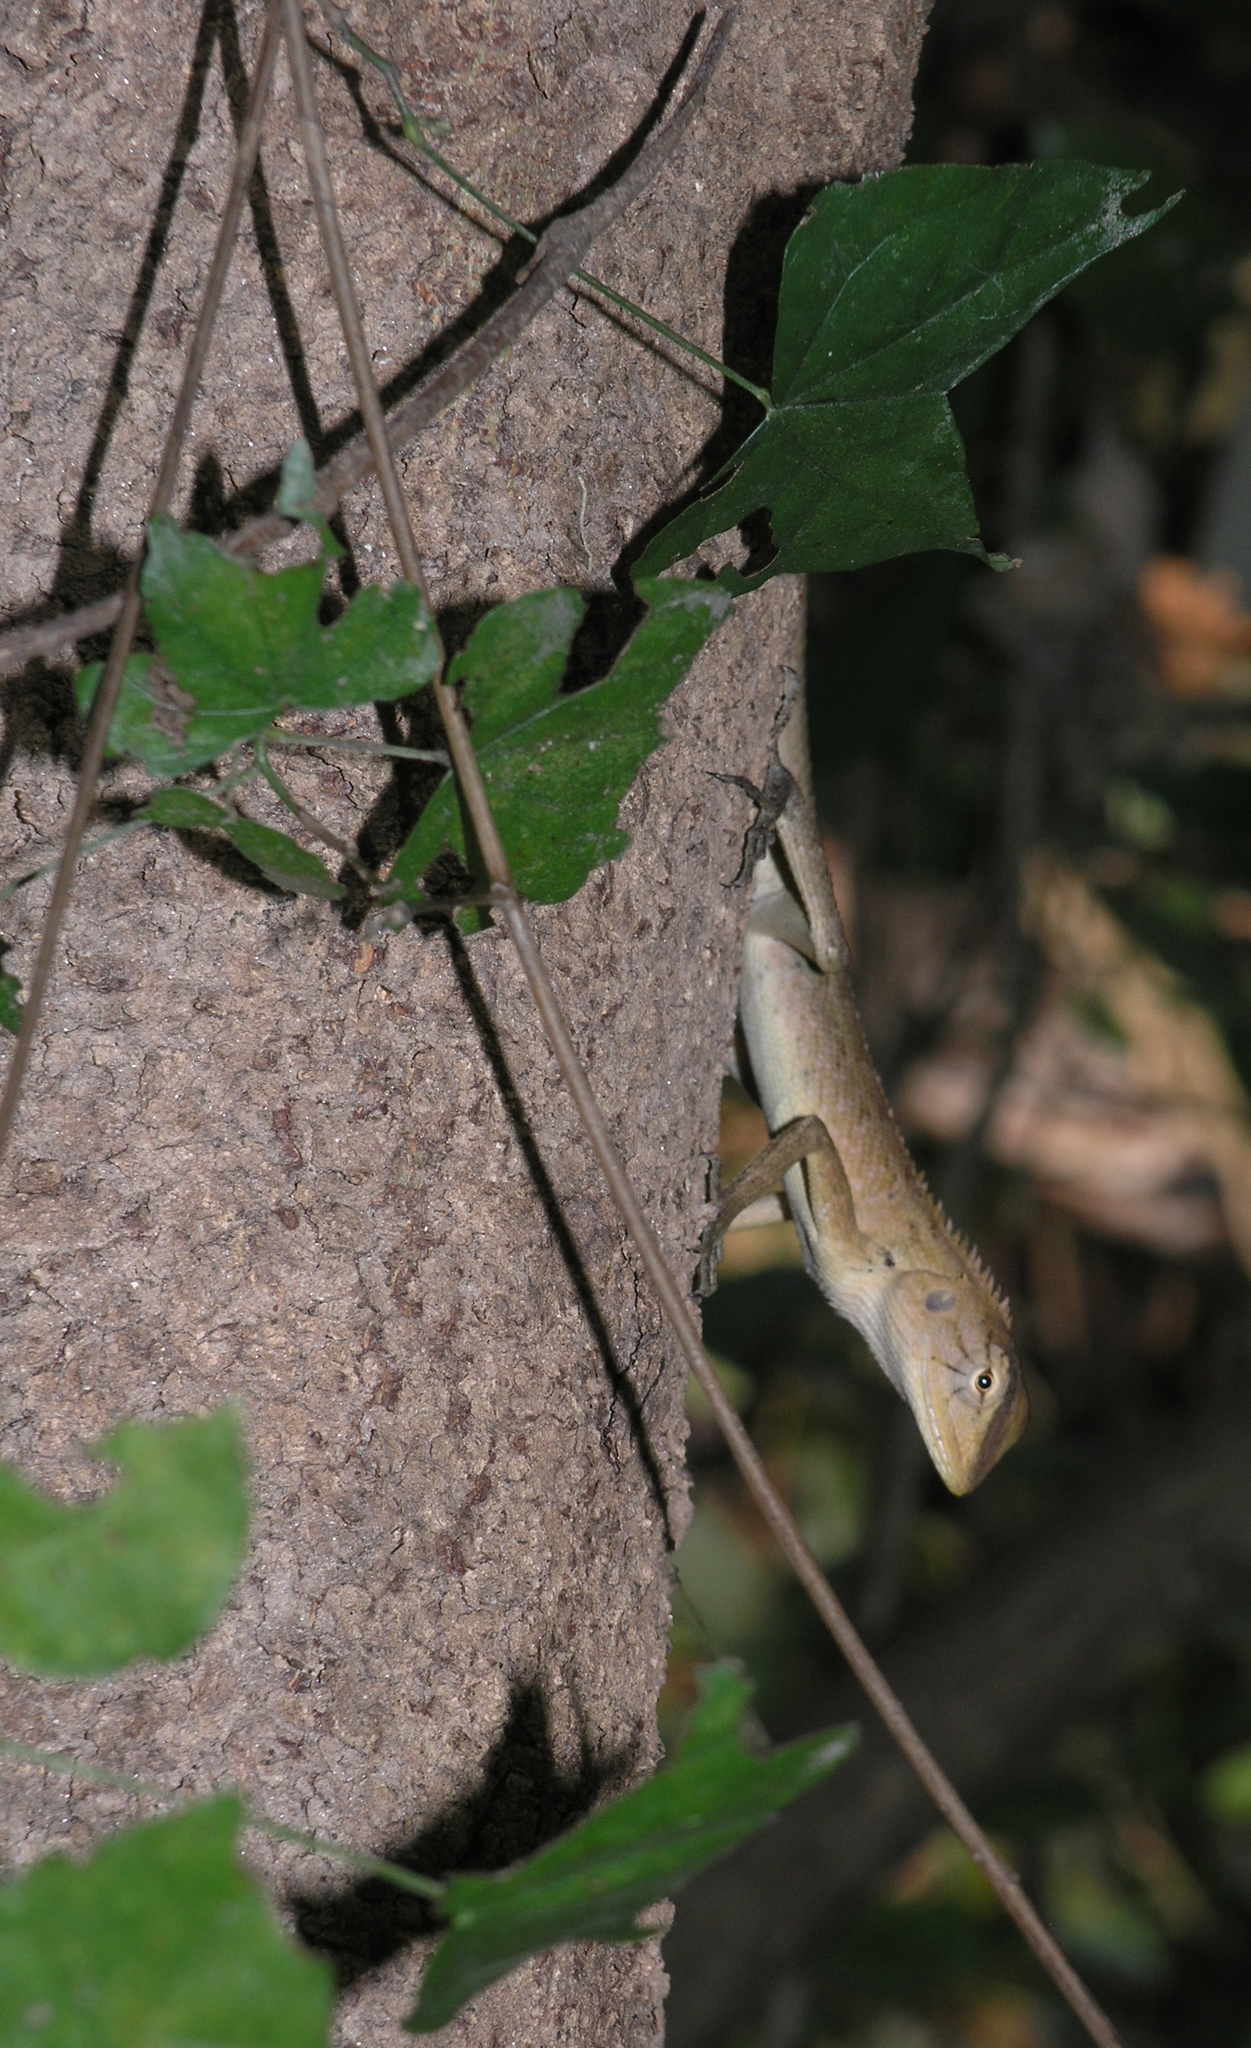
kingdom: Animalia
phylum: Chordata
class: Squamata
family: Agamidae
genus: Calotes
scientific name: Calotes versicolor
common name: Oriental garden lizard
